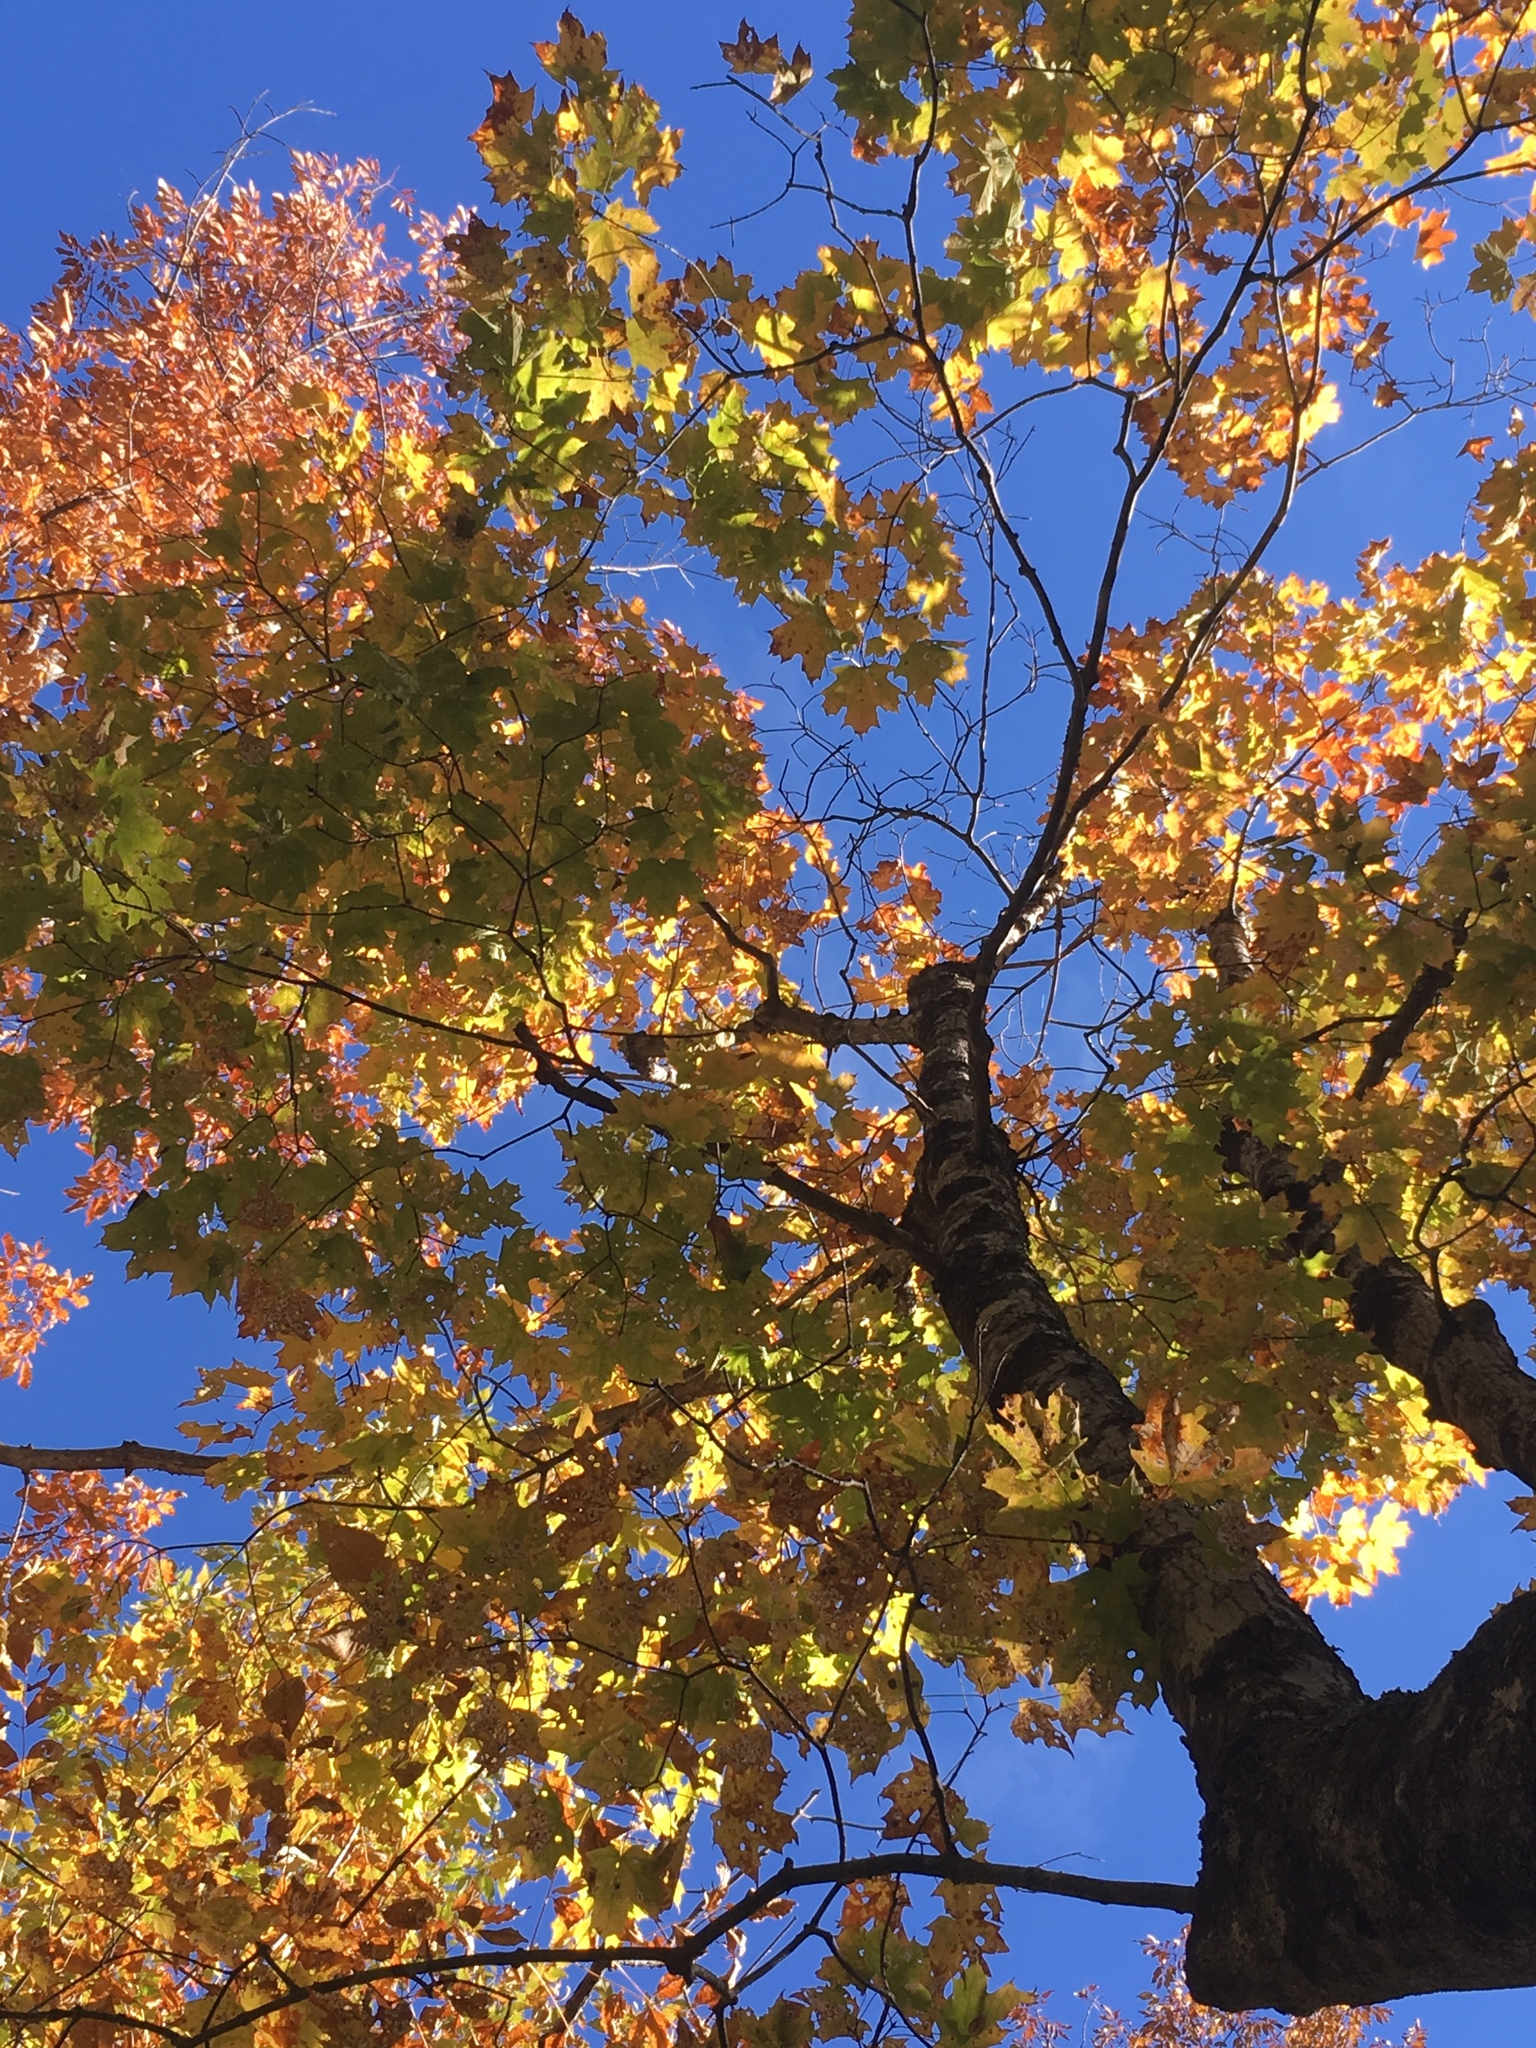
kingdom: Plantae
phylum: Tracheophyta
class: Magnoliopsida
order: Sapindales
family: Sapindaceae
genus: Acer
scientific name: Acer saccharum
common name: Sugar maple
